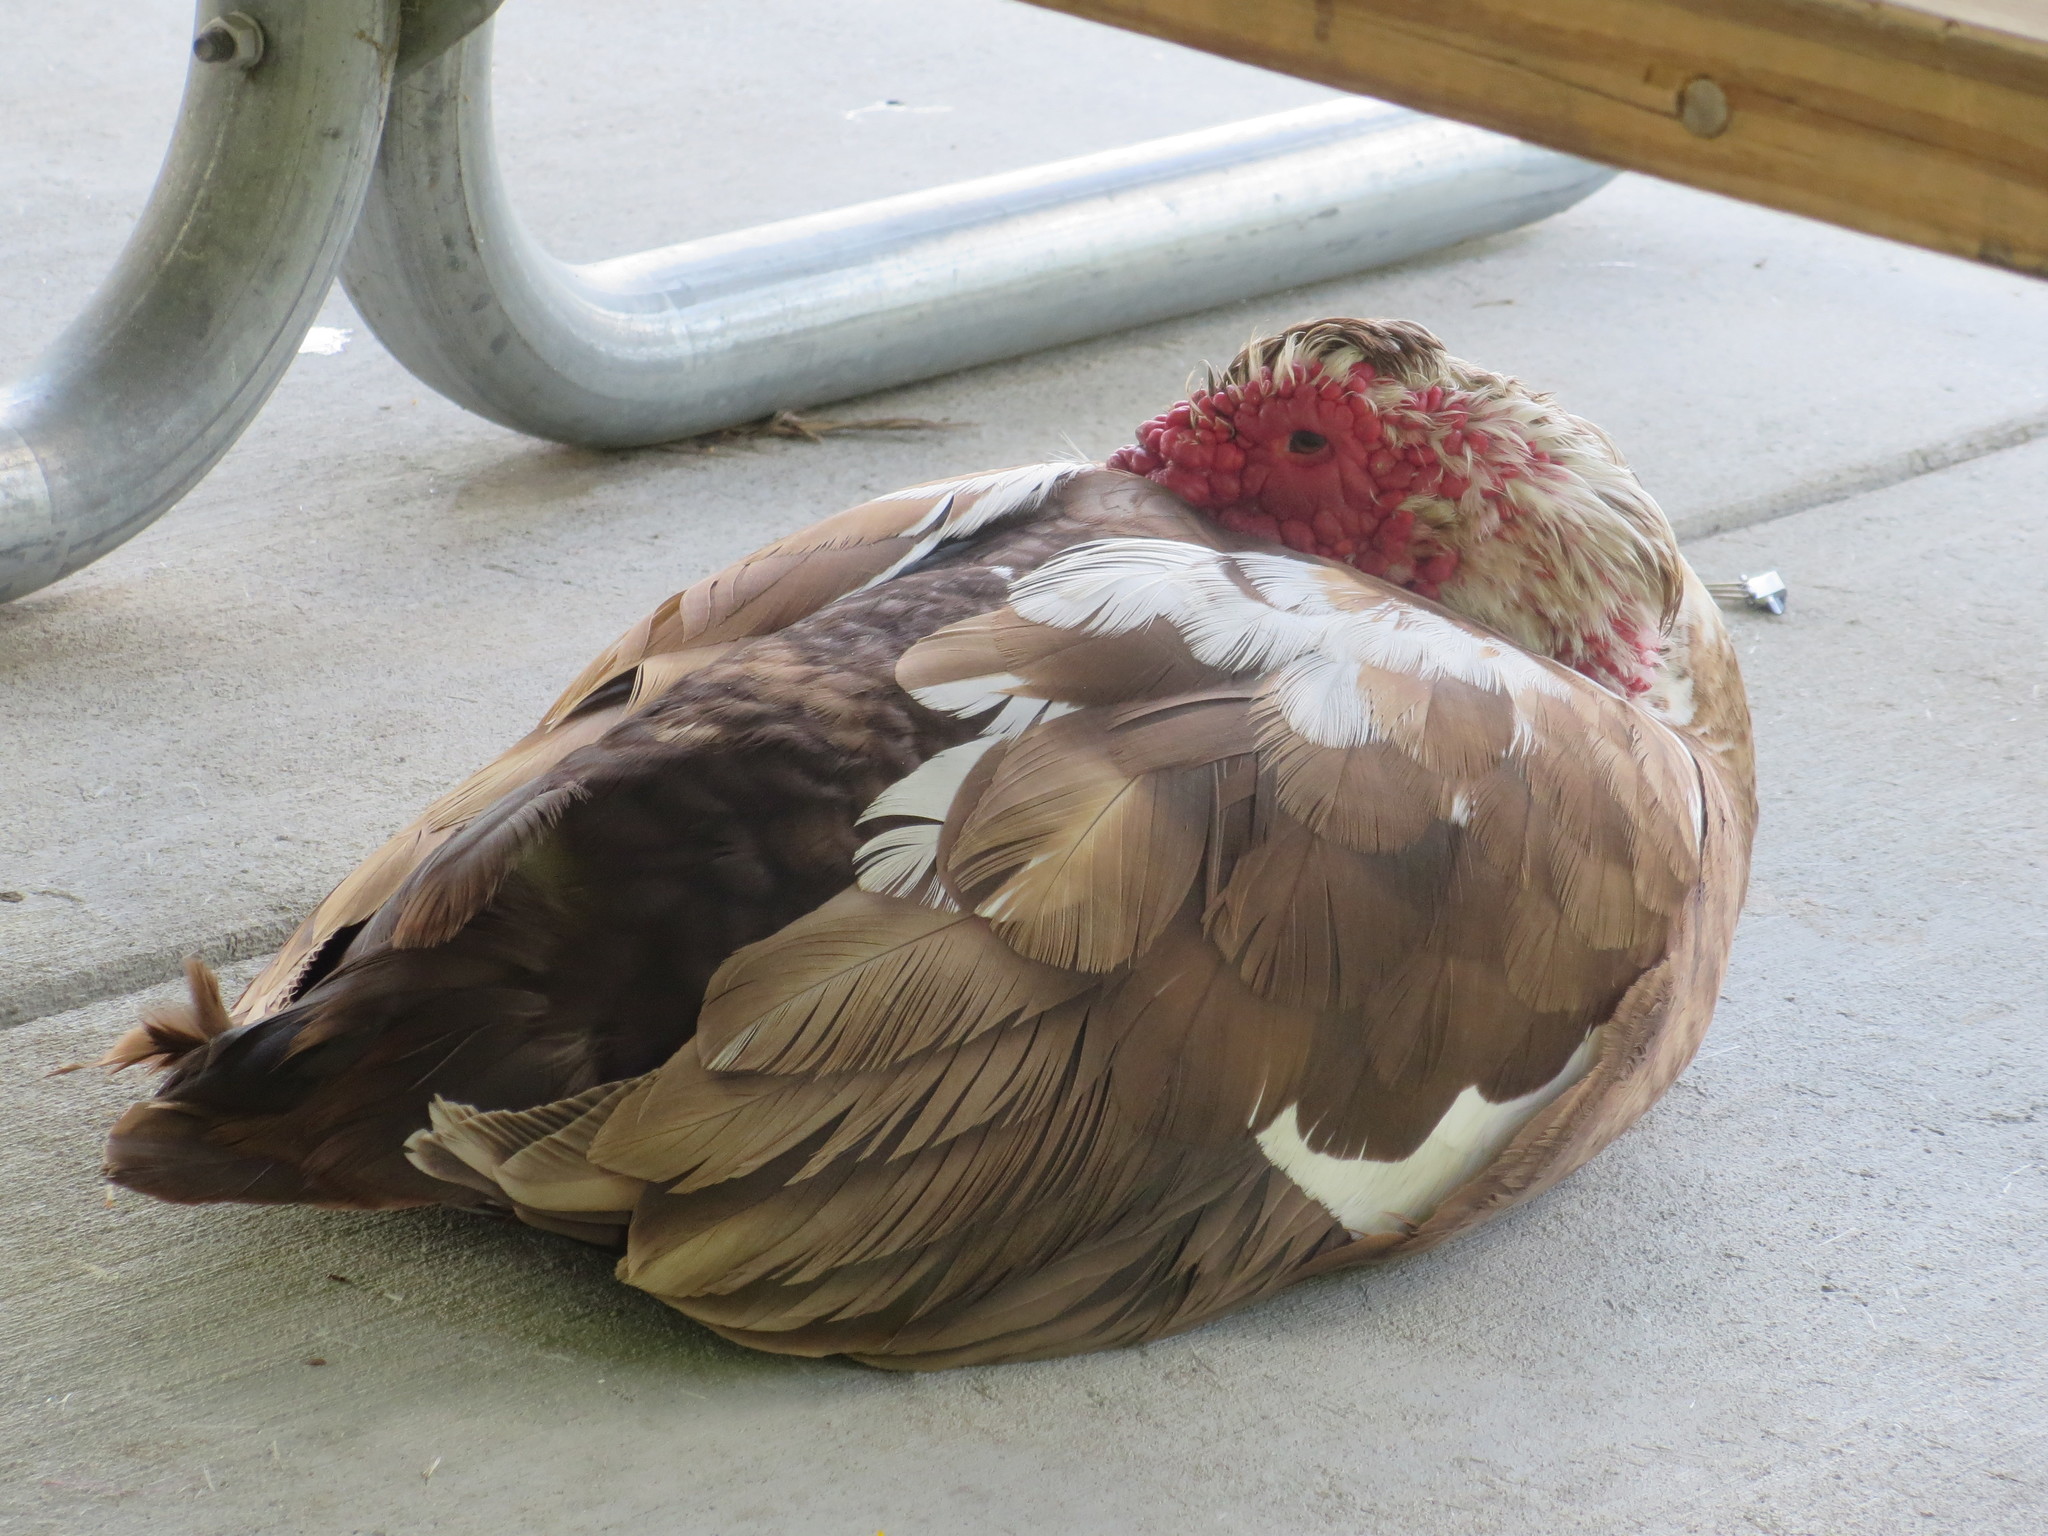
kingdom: Animalia
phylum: Chordata
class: Aves
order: Anseriformes
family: Anatidae
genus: Cairina
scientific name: Cairina moschata
